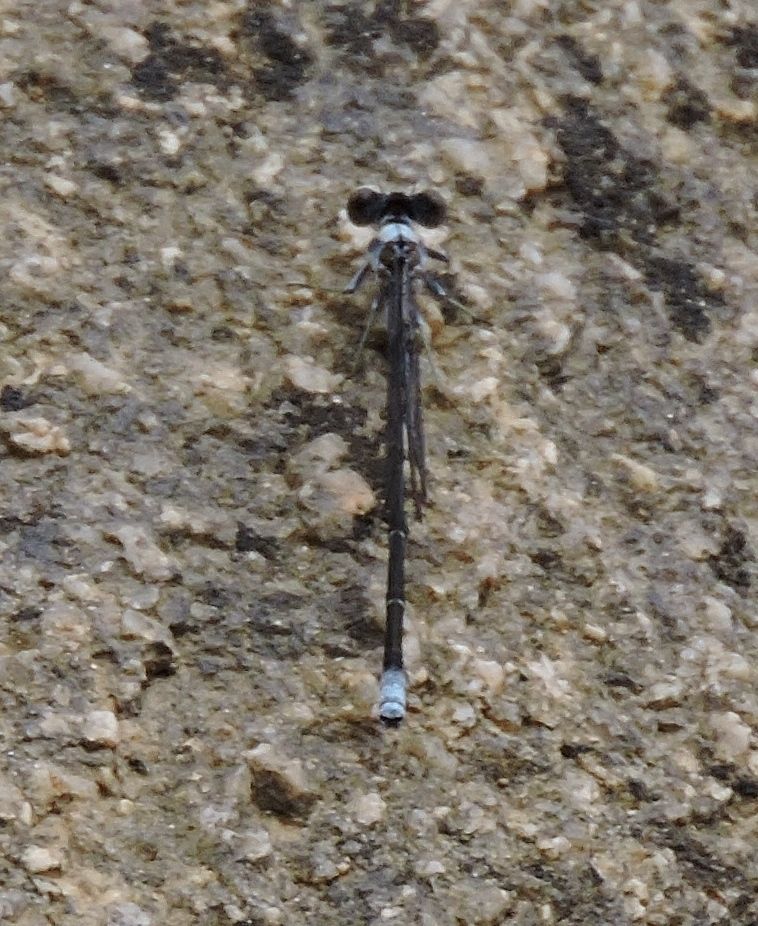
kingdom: Animalia
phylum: Arthropoda
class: Insecta
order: Odonata
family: Coenagrionidae
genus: Argia
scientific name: Argia moesta
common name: Powdered dancer
